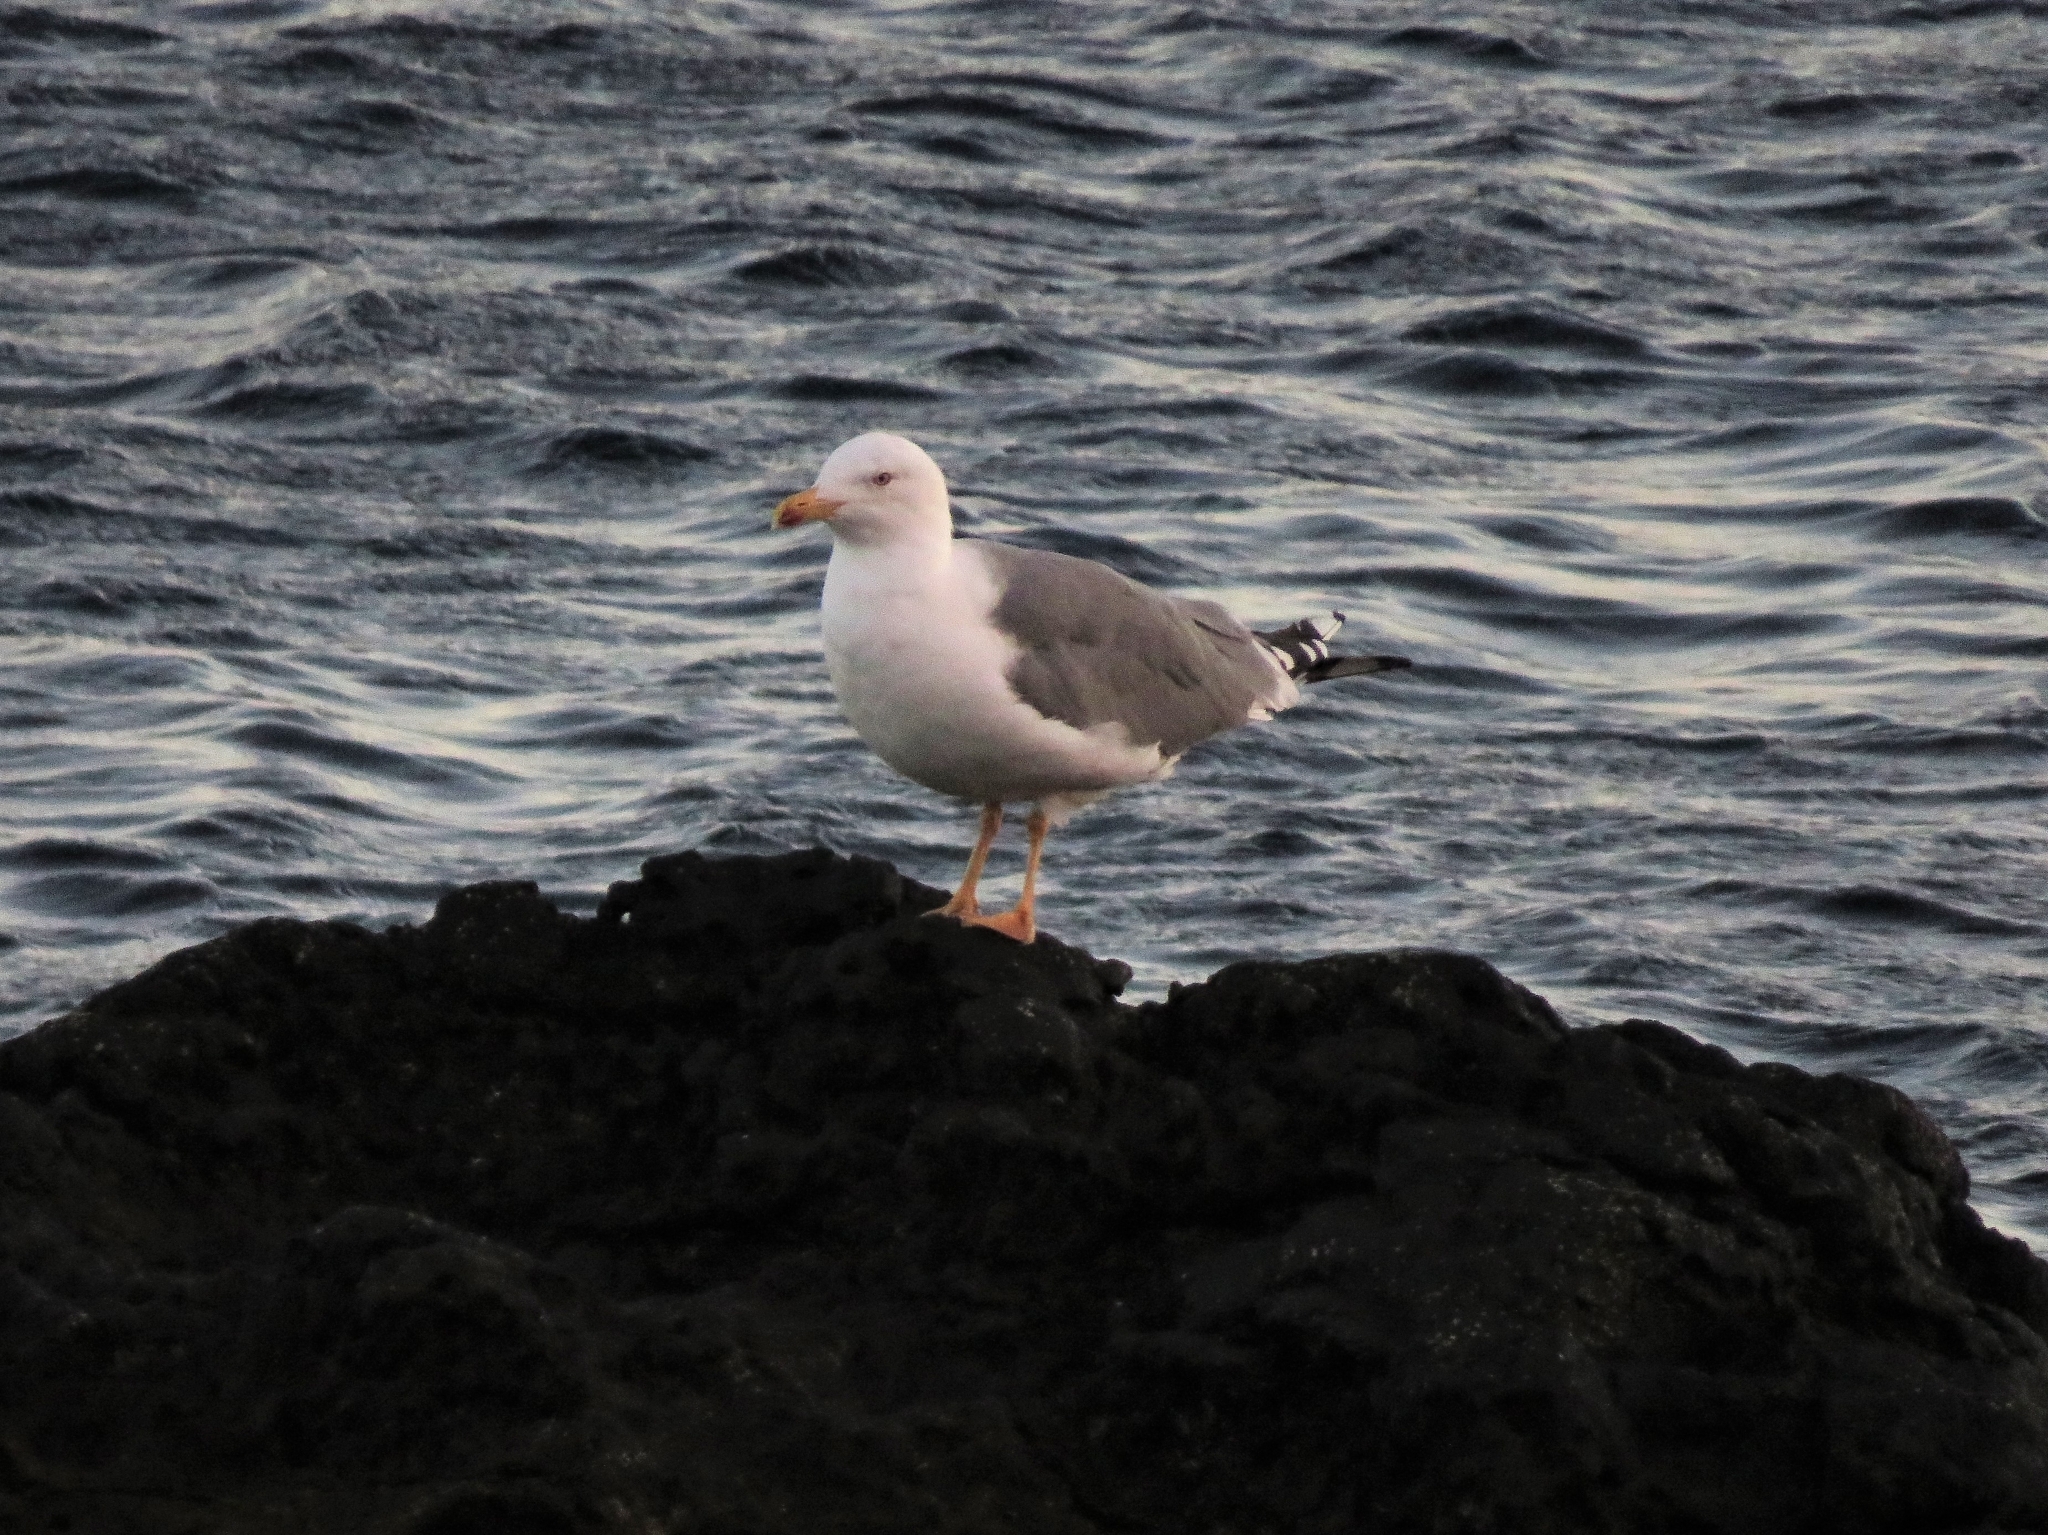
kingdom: Animalia
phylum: Chordata
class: Aves
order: Charadriiformes
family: Laridae
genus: Larus
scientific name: Larus michahellis
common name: Yellow-legged gull
